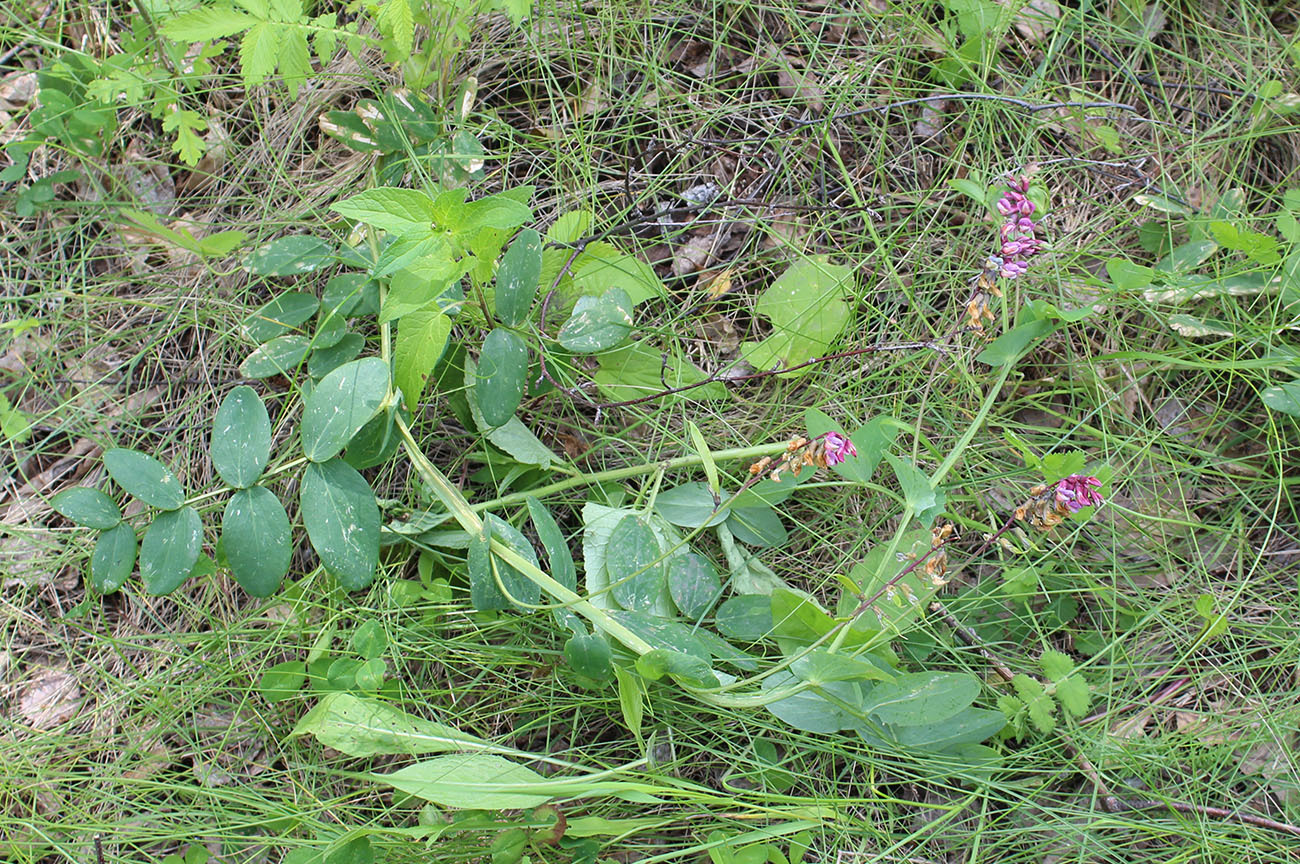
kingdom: Plantae
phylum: Tracheophyta
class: Magnoliopsida
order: Fabales
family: Fabaceae
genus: Lathyrus
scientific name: Lathyrus pisiformis
